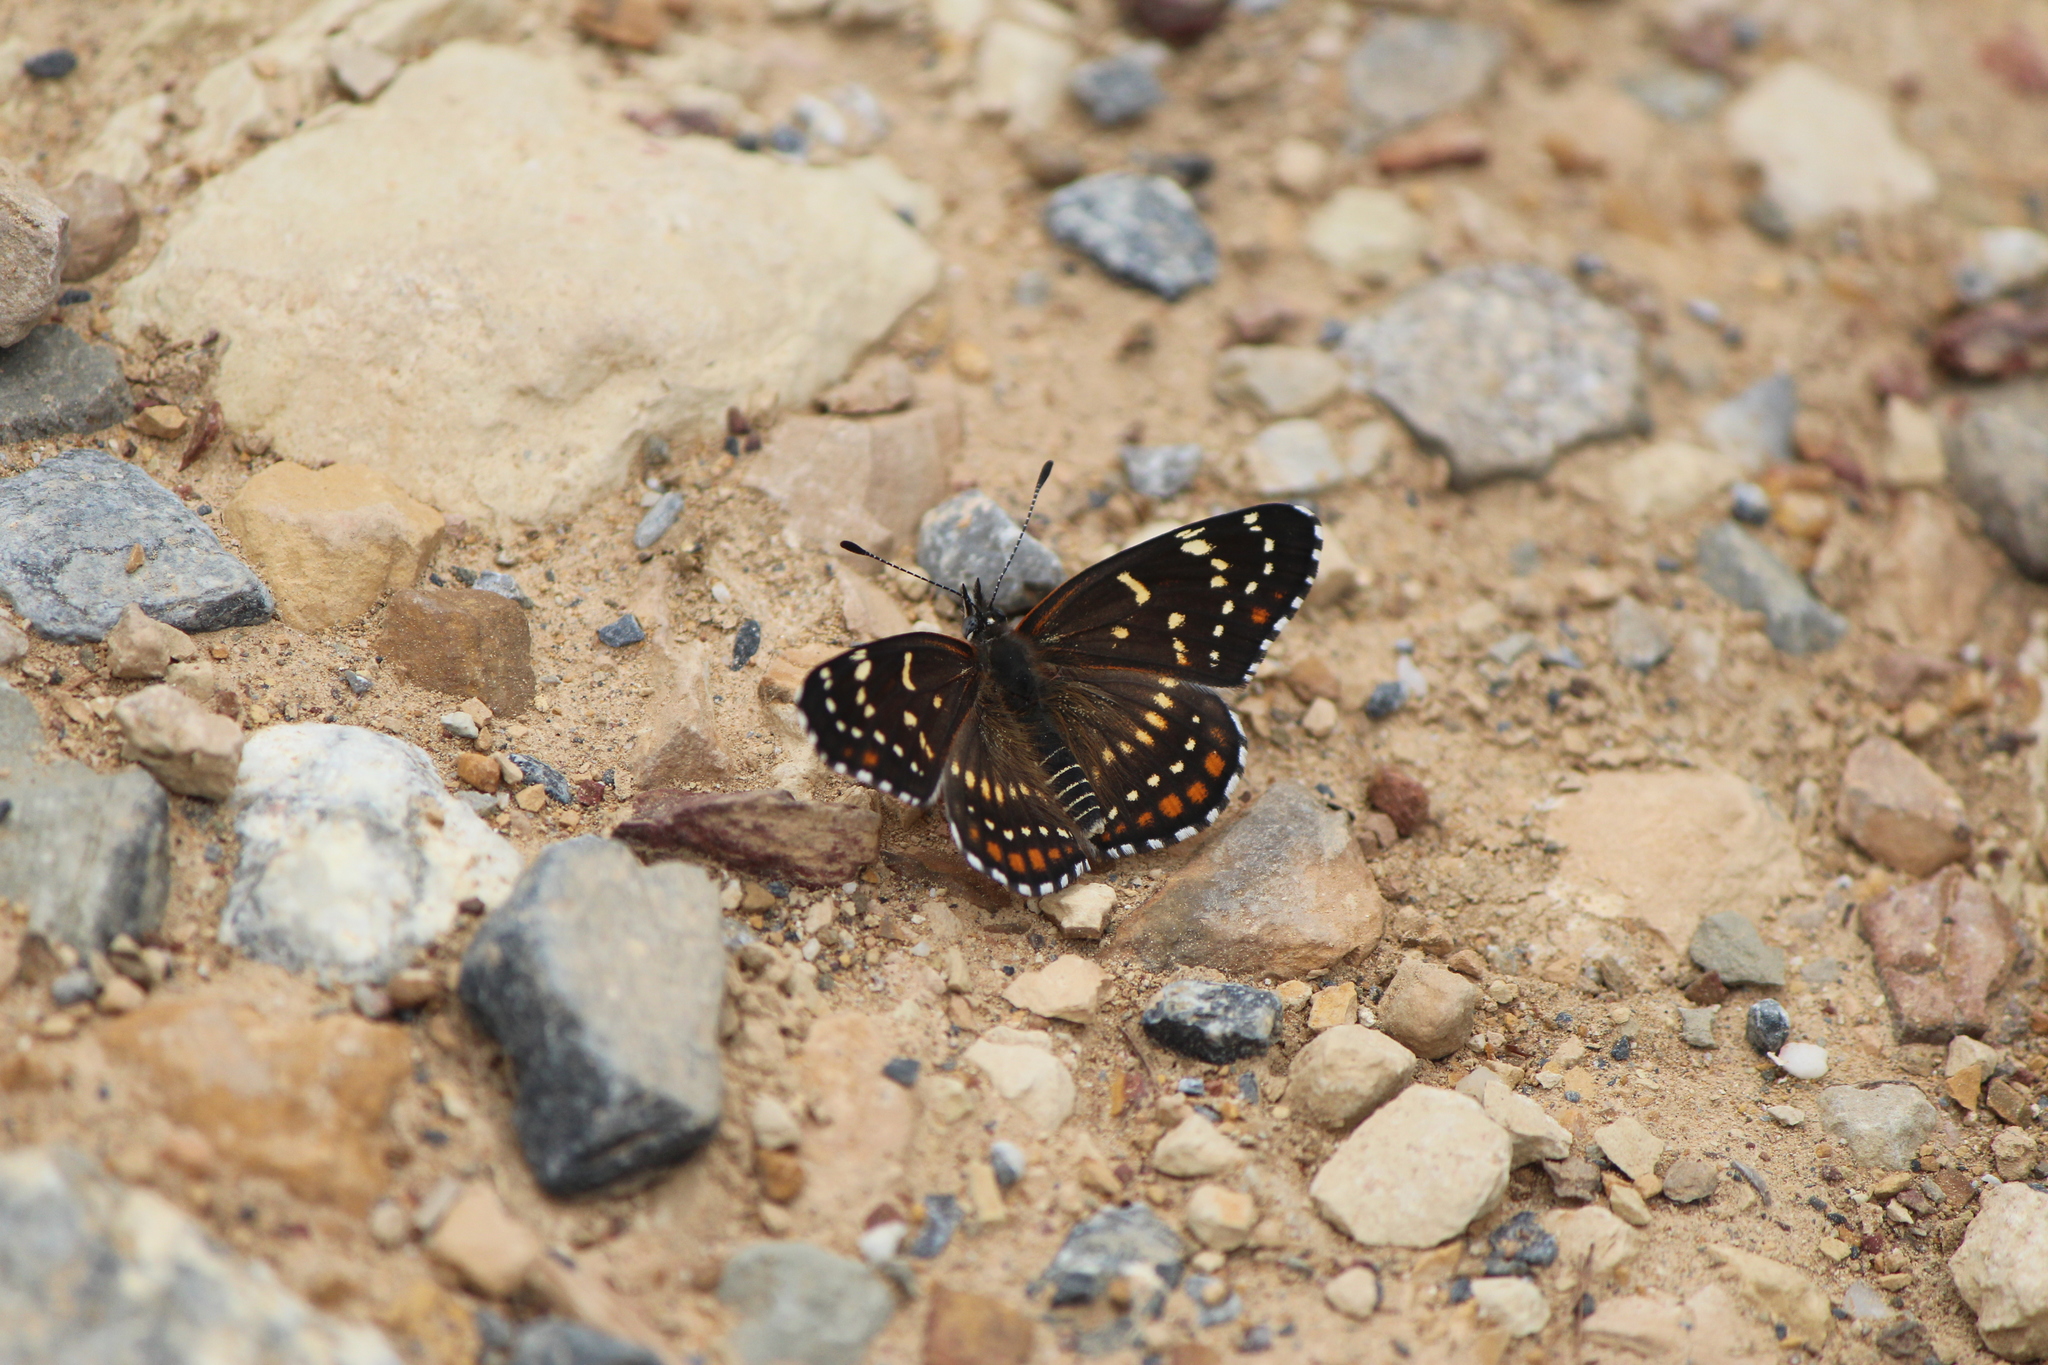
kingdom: Animalia
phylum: Arthropoda
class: Insecta
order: Lepidoptera
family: Nymphalidae
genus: Thessalia
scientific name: Thessalia leanira
